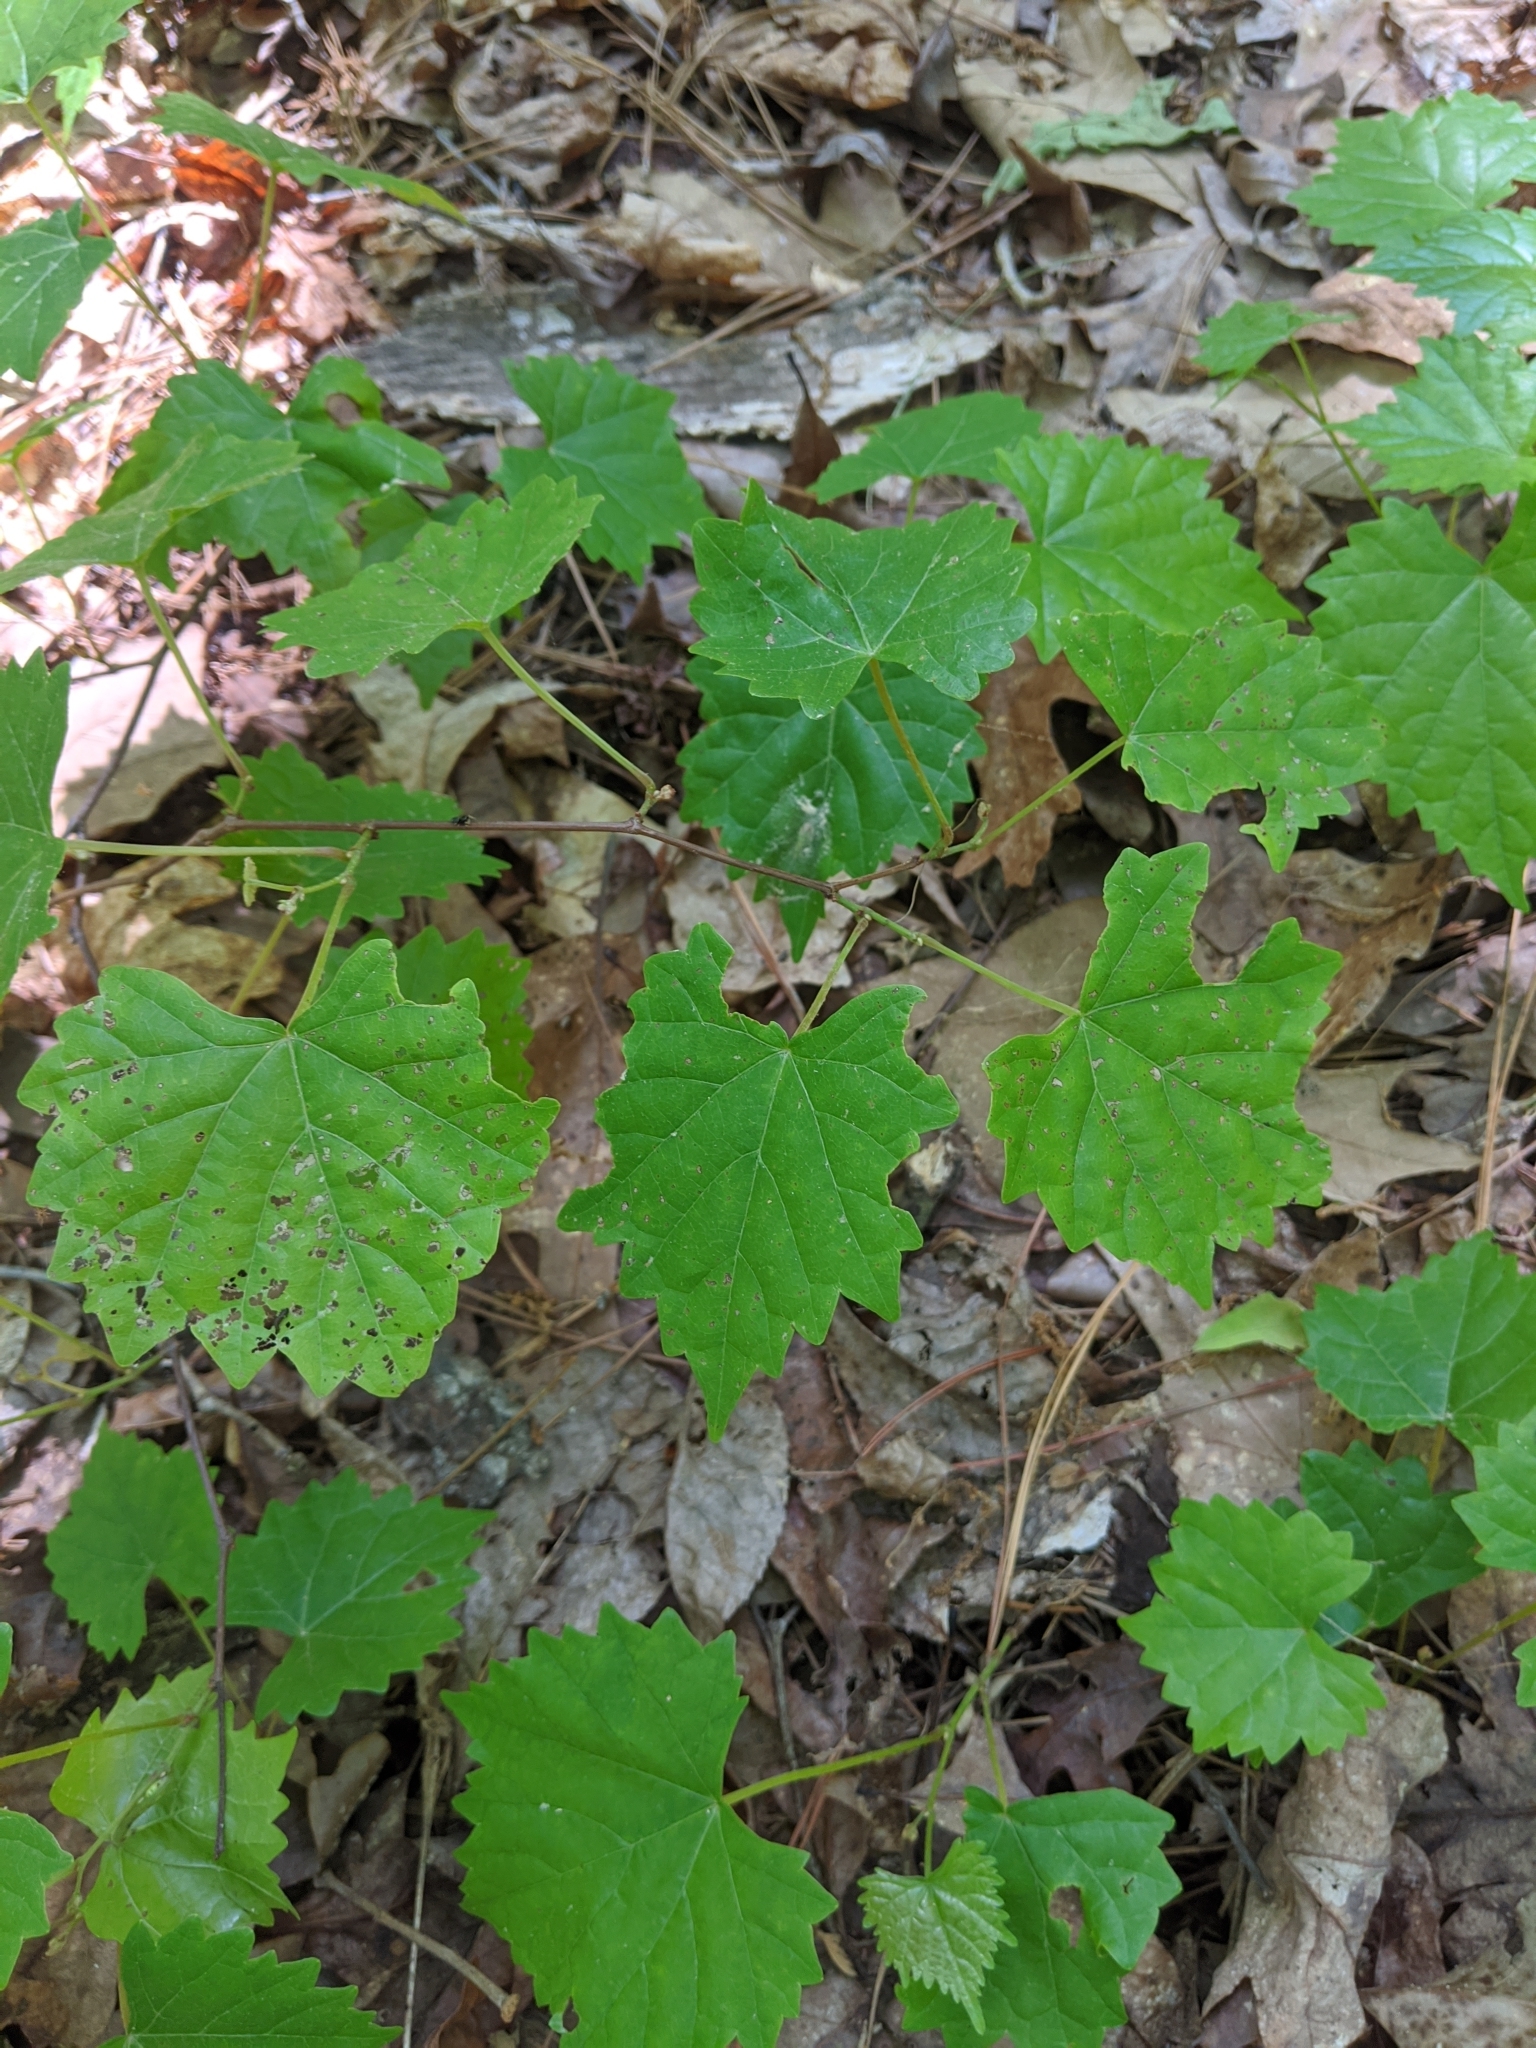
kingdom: Plantae
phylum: Tracheophyta
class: Magnoliopsida
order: Vitales
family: Vitaceae
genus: Vitis
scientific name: Vitis rotundifolia
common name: Muscadine grape
